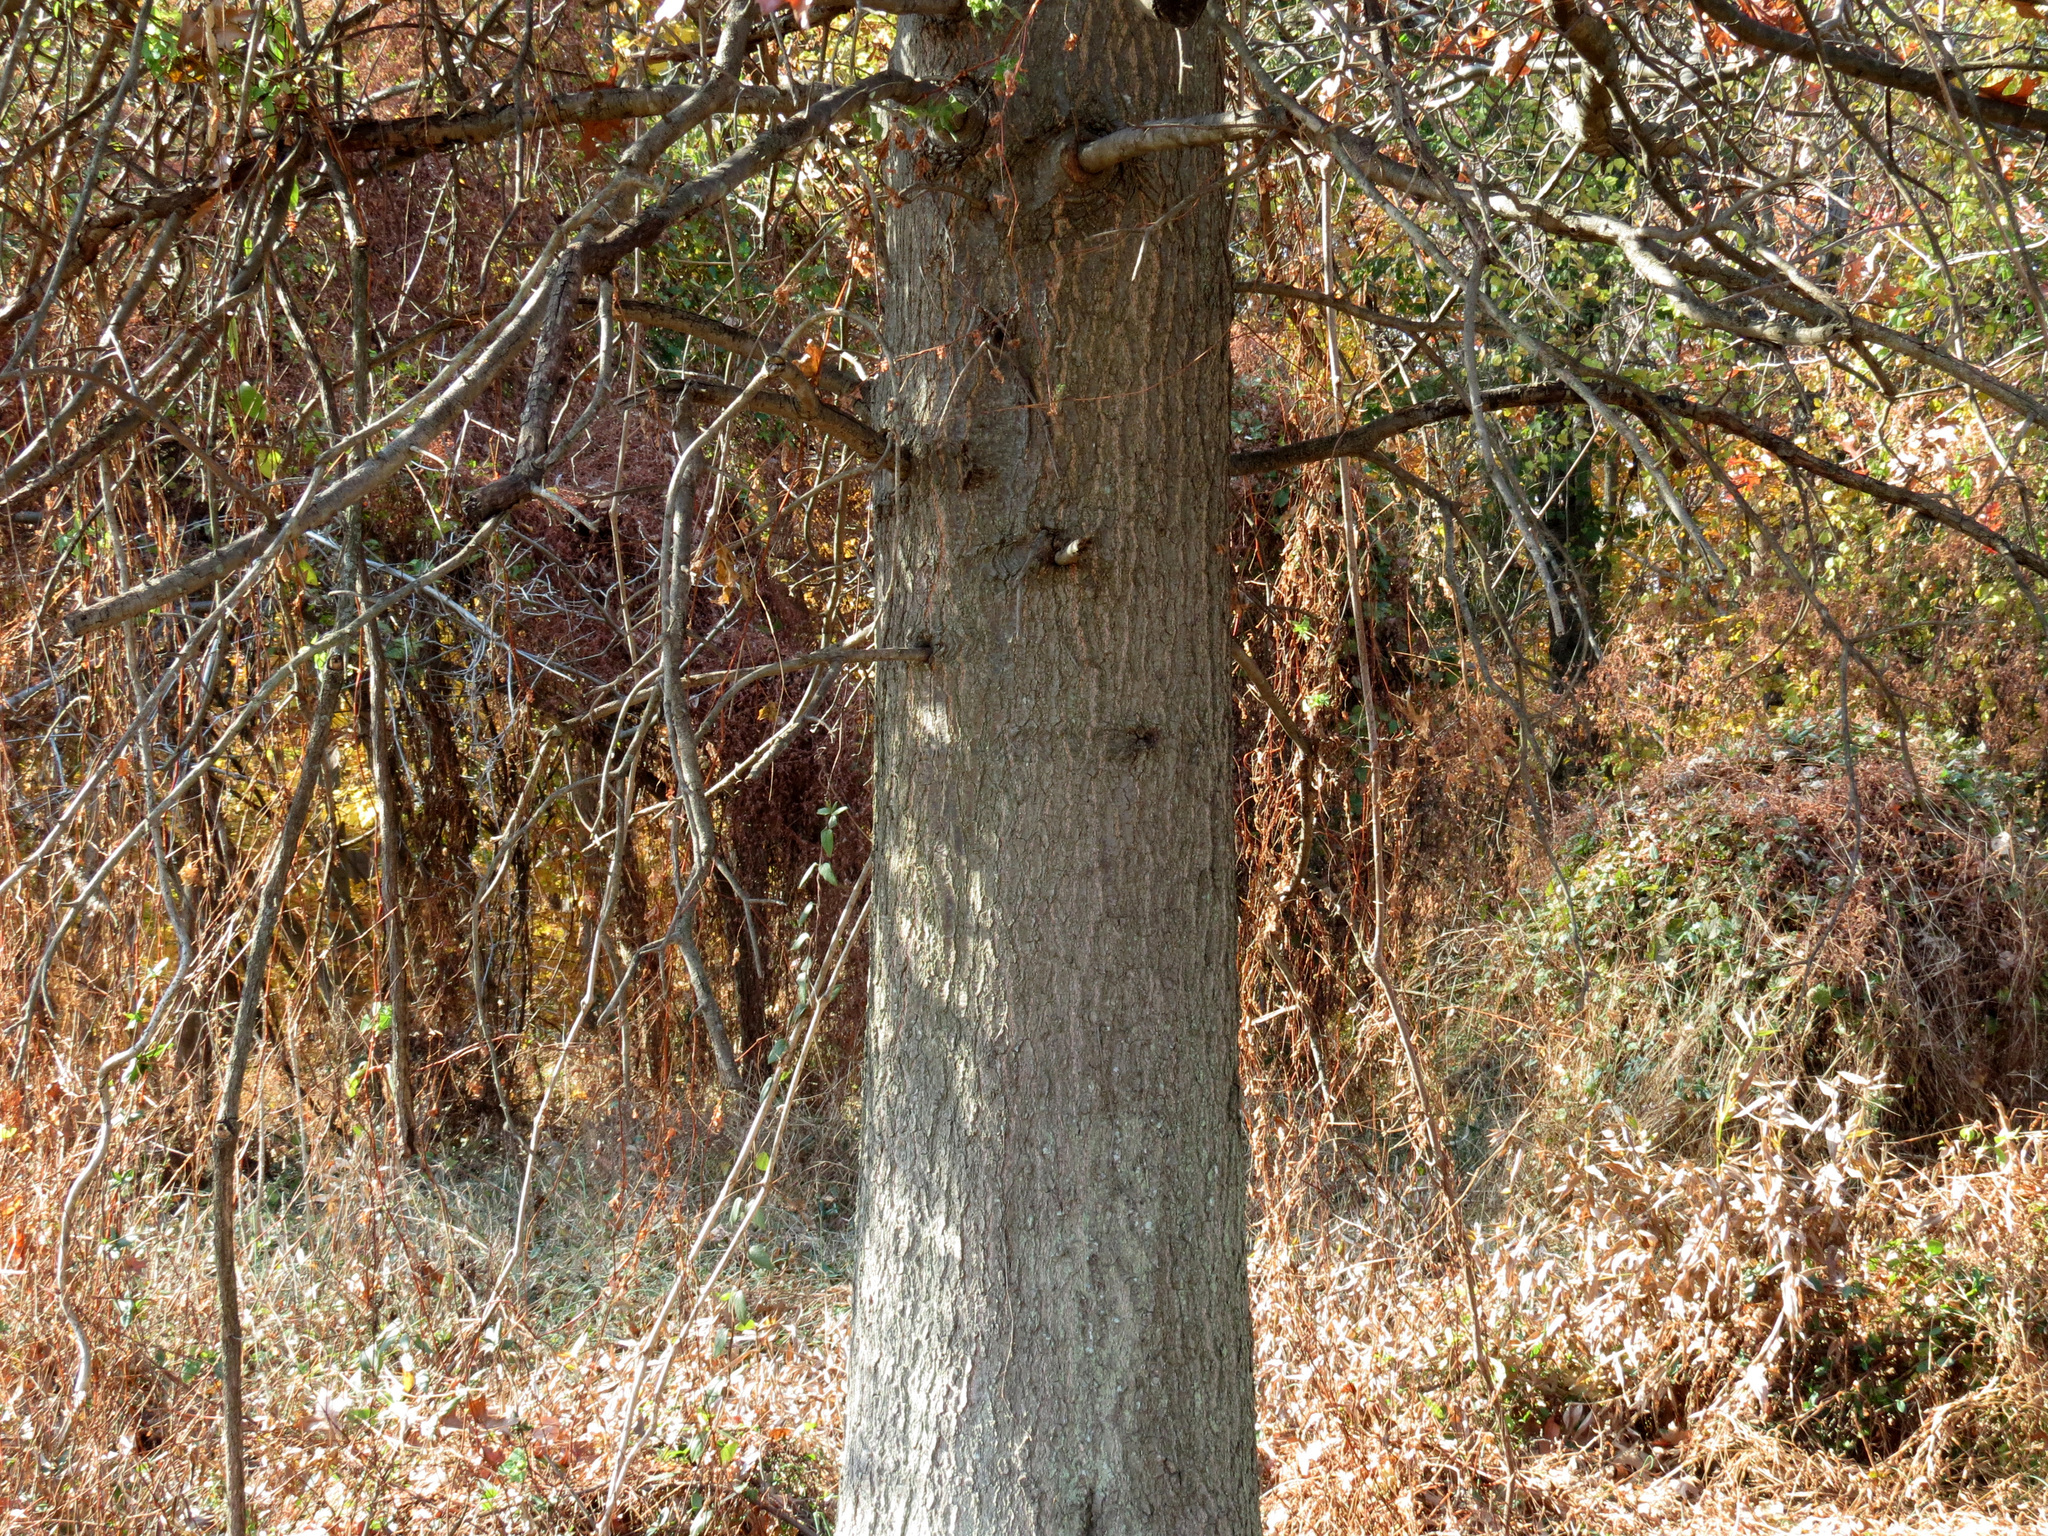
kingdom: Plantae
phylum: Tracheophyta
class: Magnoliopsida
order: Fagales
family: Fagaceae
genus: Quercus
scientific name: Quercus palustris
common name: Pin oak
